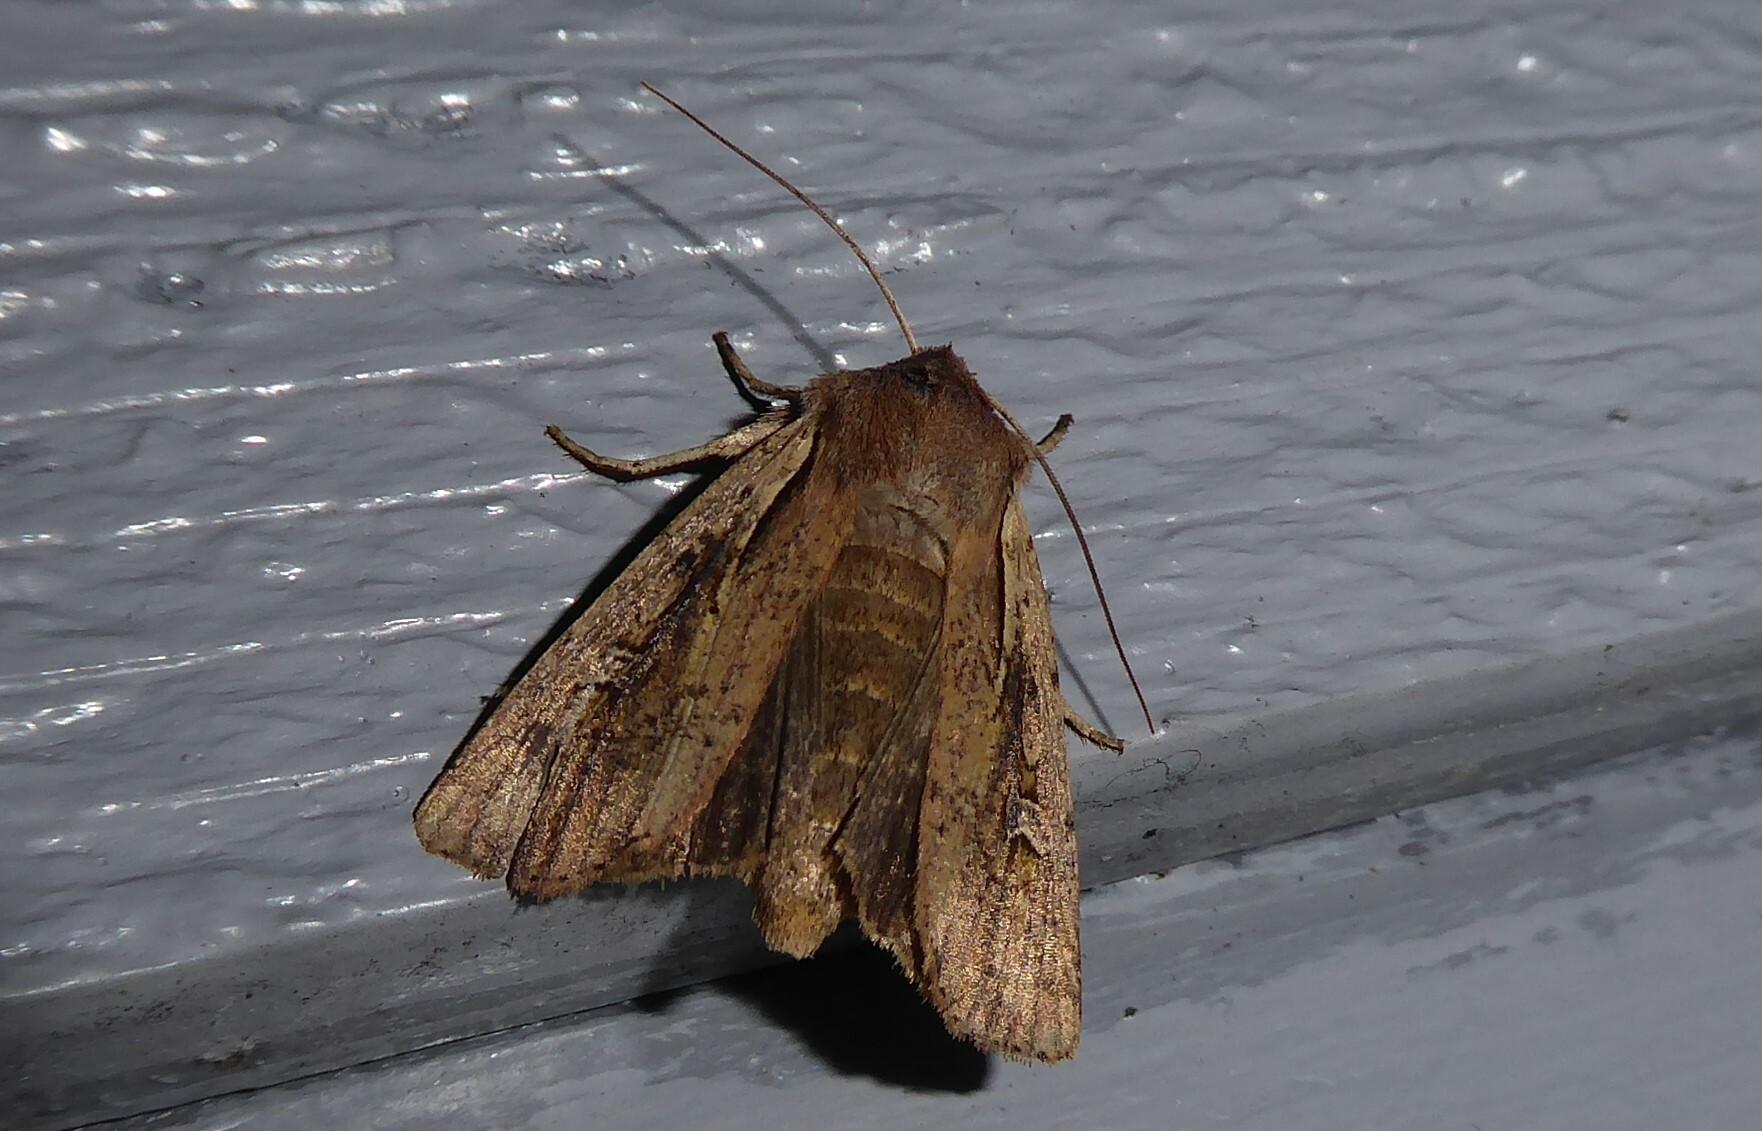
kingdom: Animalia
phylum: Arthropoda
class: Insecta
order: Lepidoptera
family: Noctuidae
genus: Ichneutica
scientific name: Ichneutica atristriga
